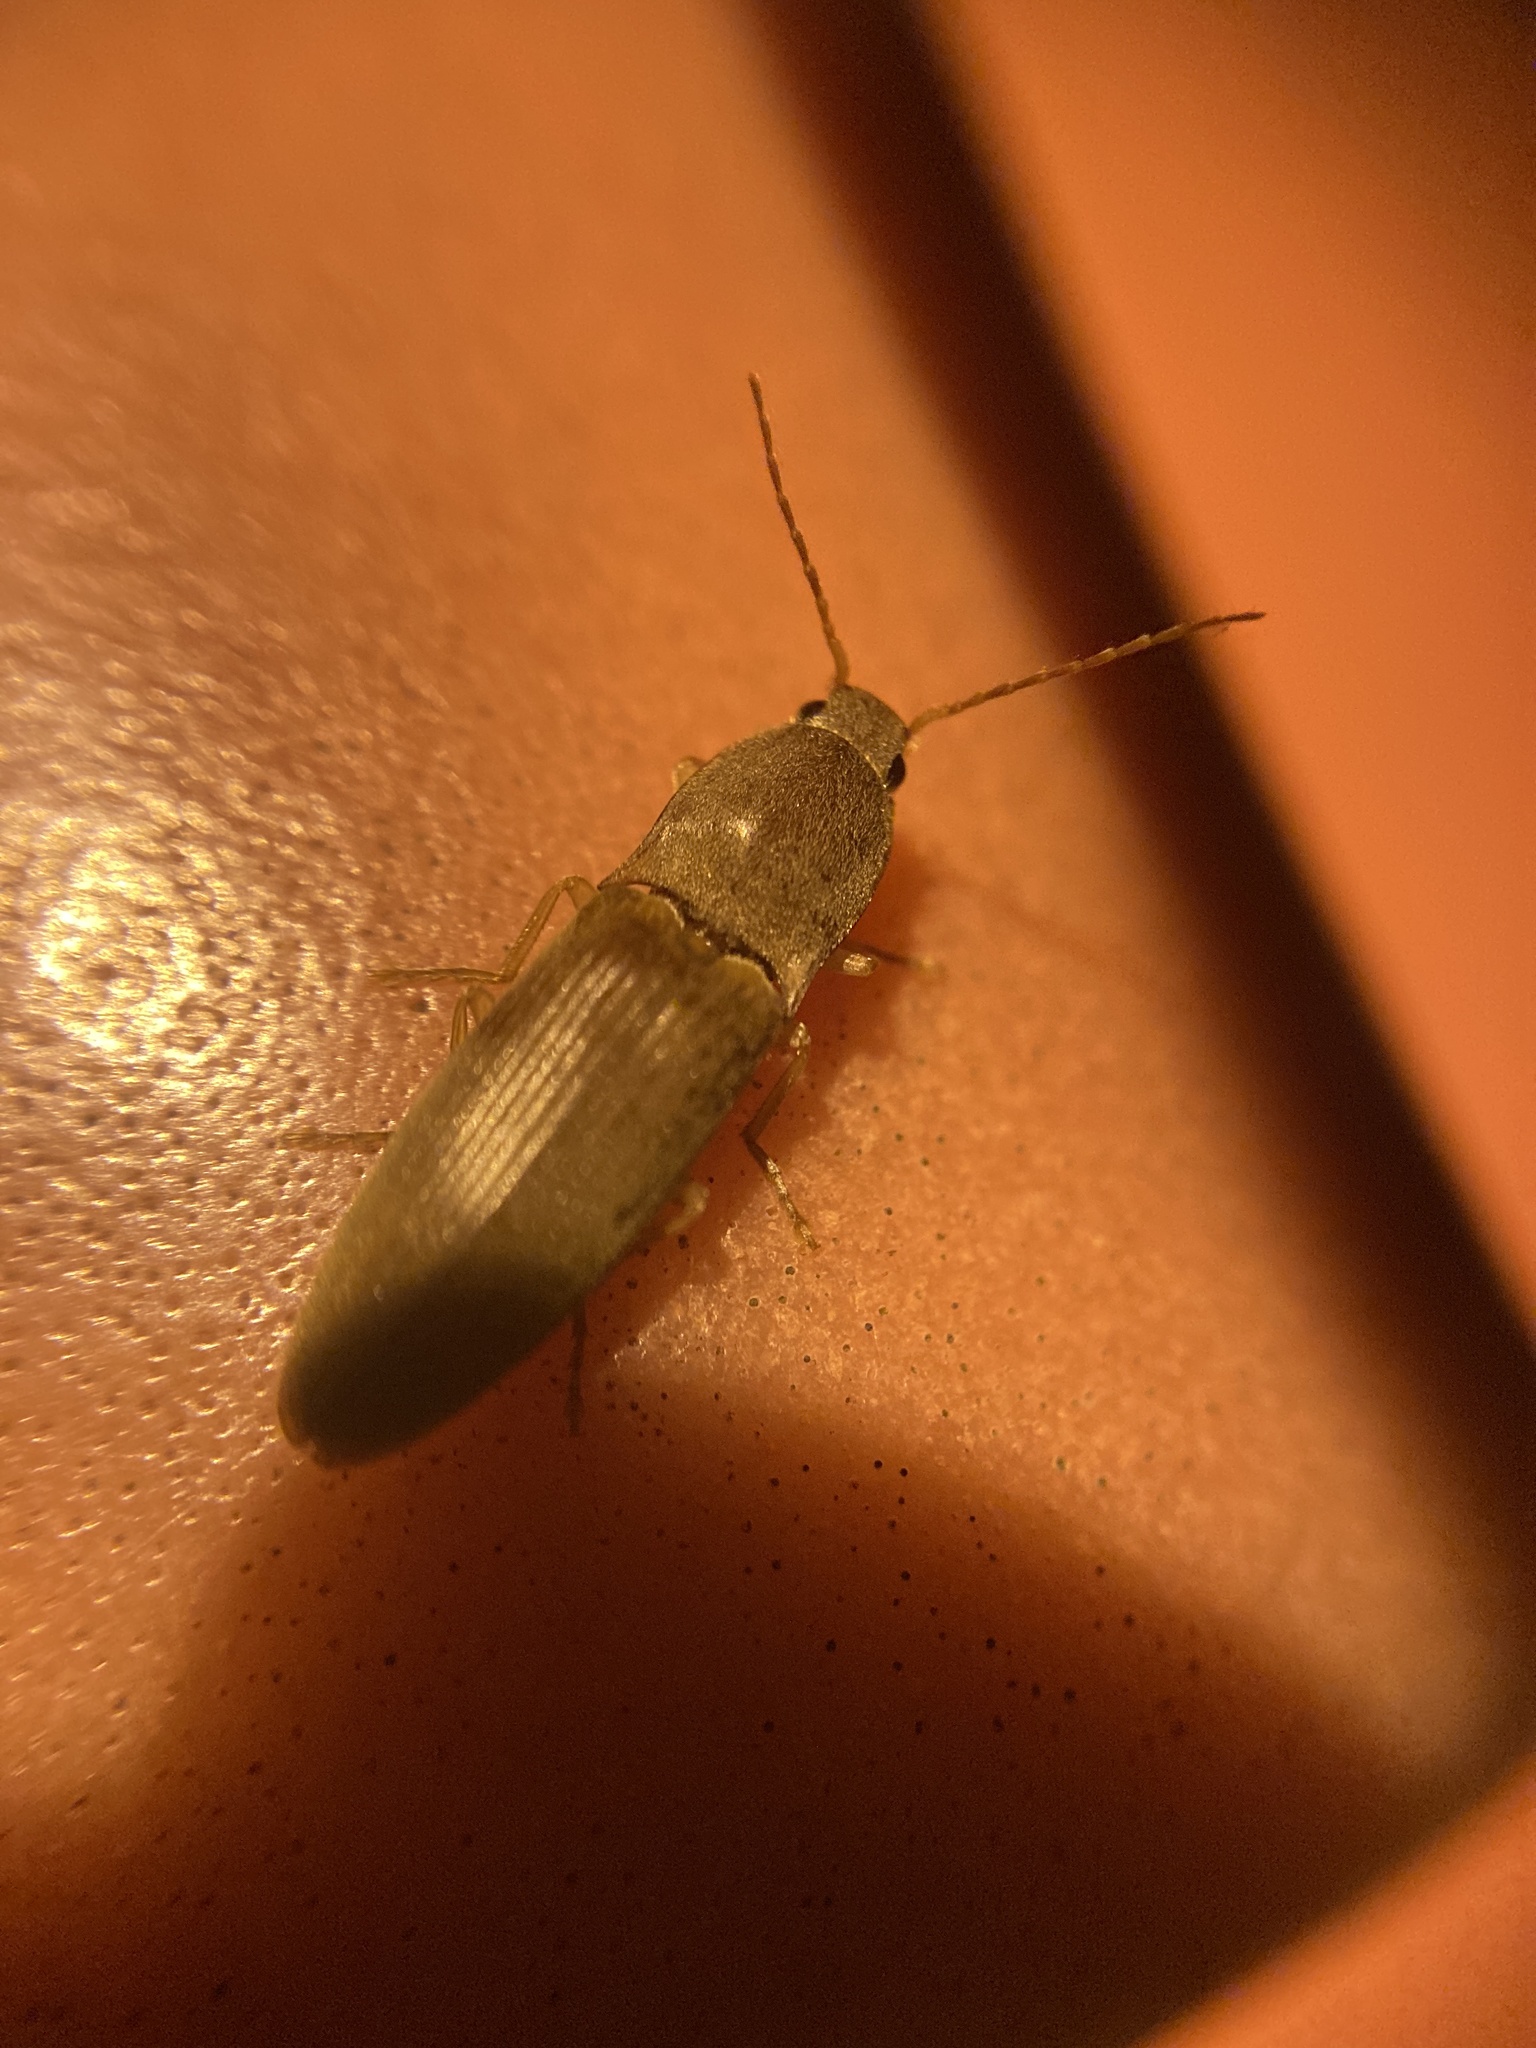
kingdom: Animalia
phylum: Arthropoda
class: Insecta
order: Coleoptera
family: Elateridae
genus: Monocrepidius
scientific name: Monocrepidius lividus
